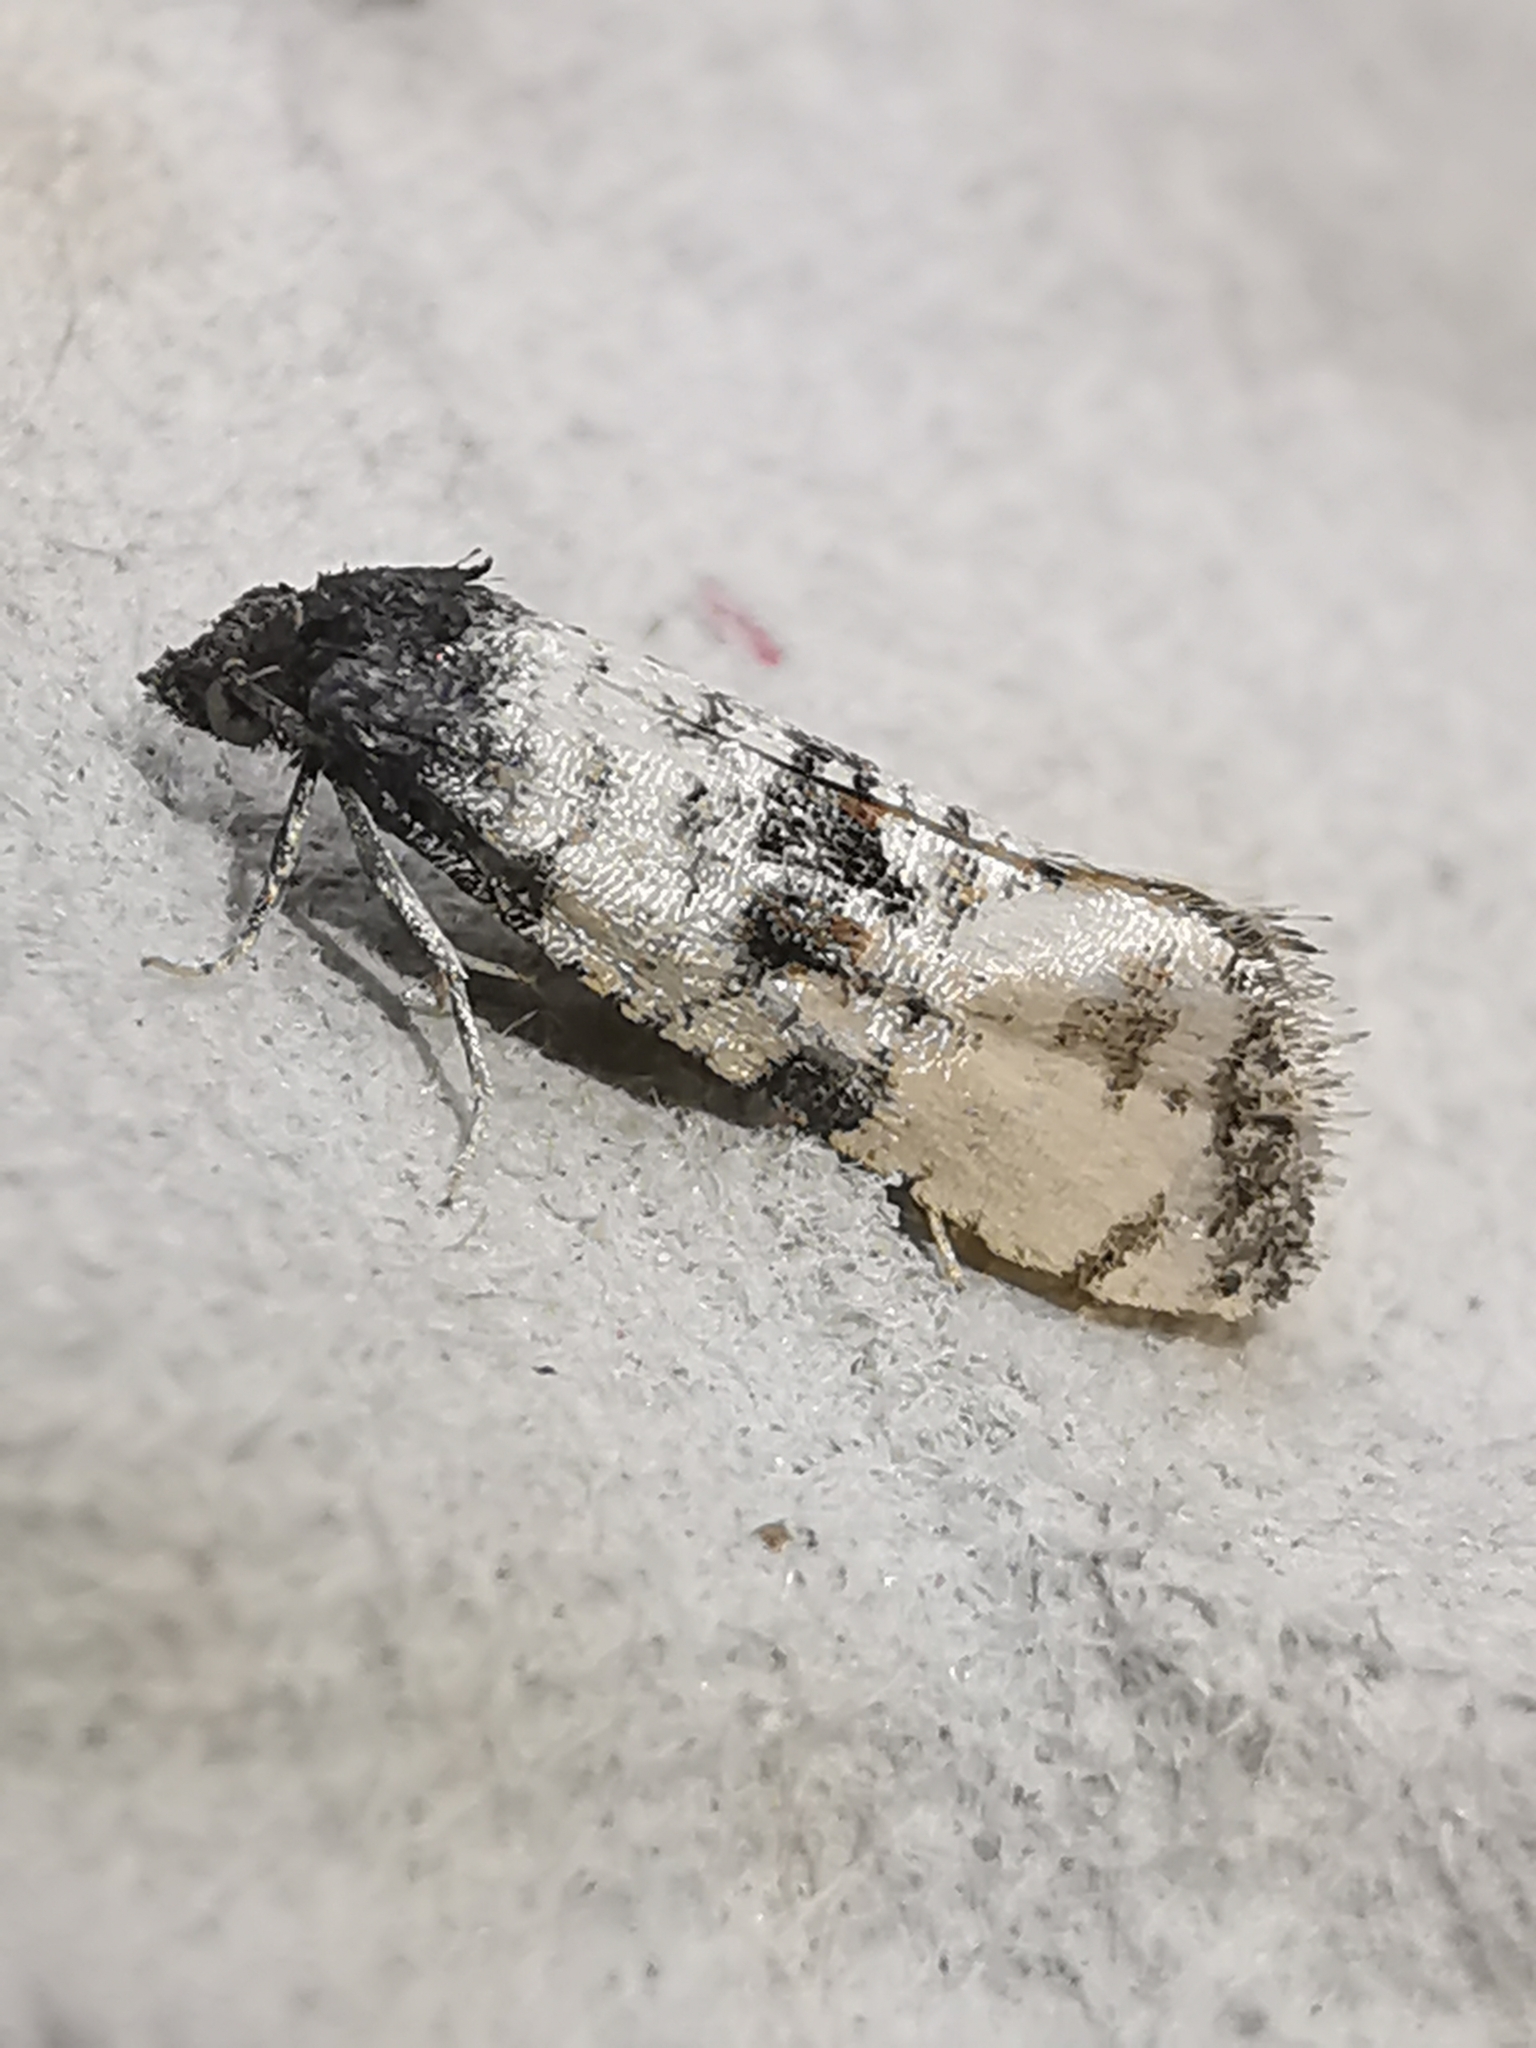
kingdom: Animalia
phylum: Arthropoda
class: Insecta
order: Lepidoptera
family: Tortricidae
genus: Cochylis
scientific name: Cochylis atricapitana
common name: Tortricid moth
